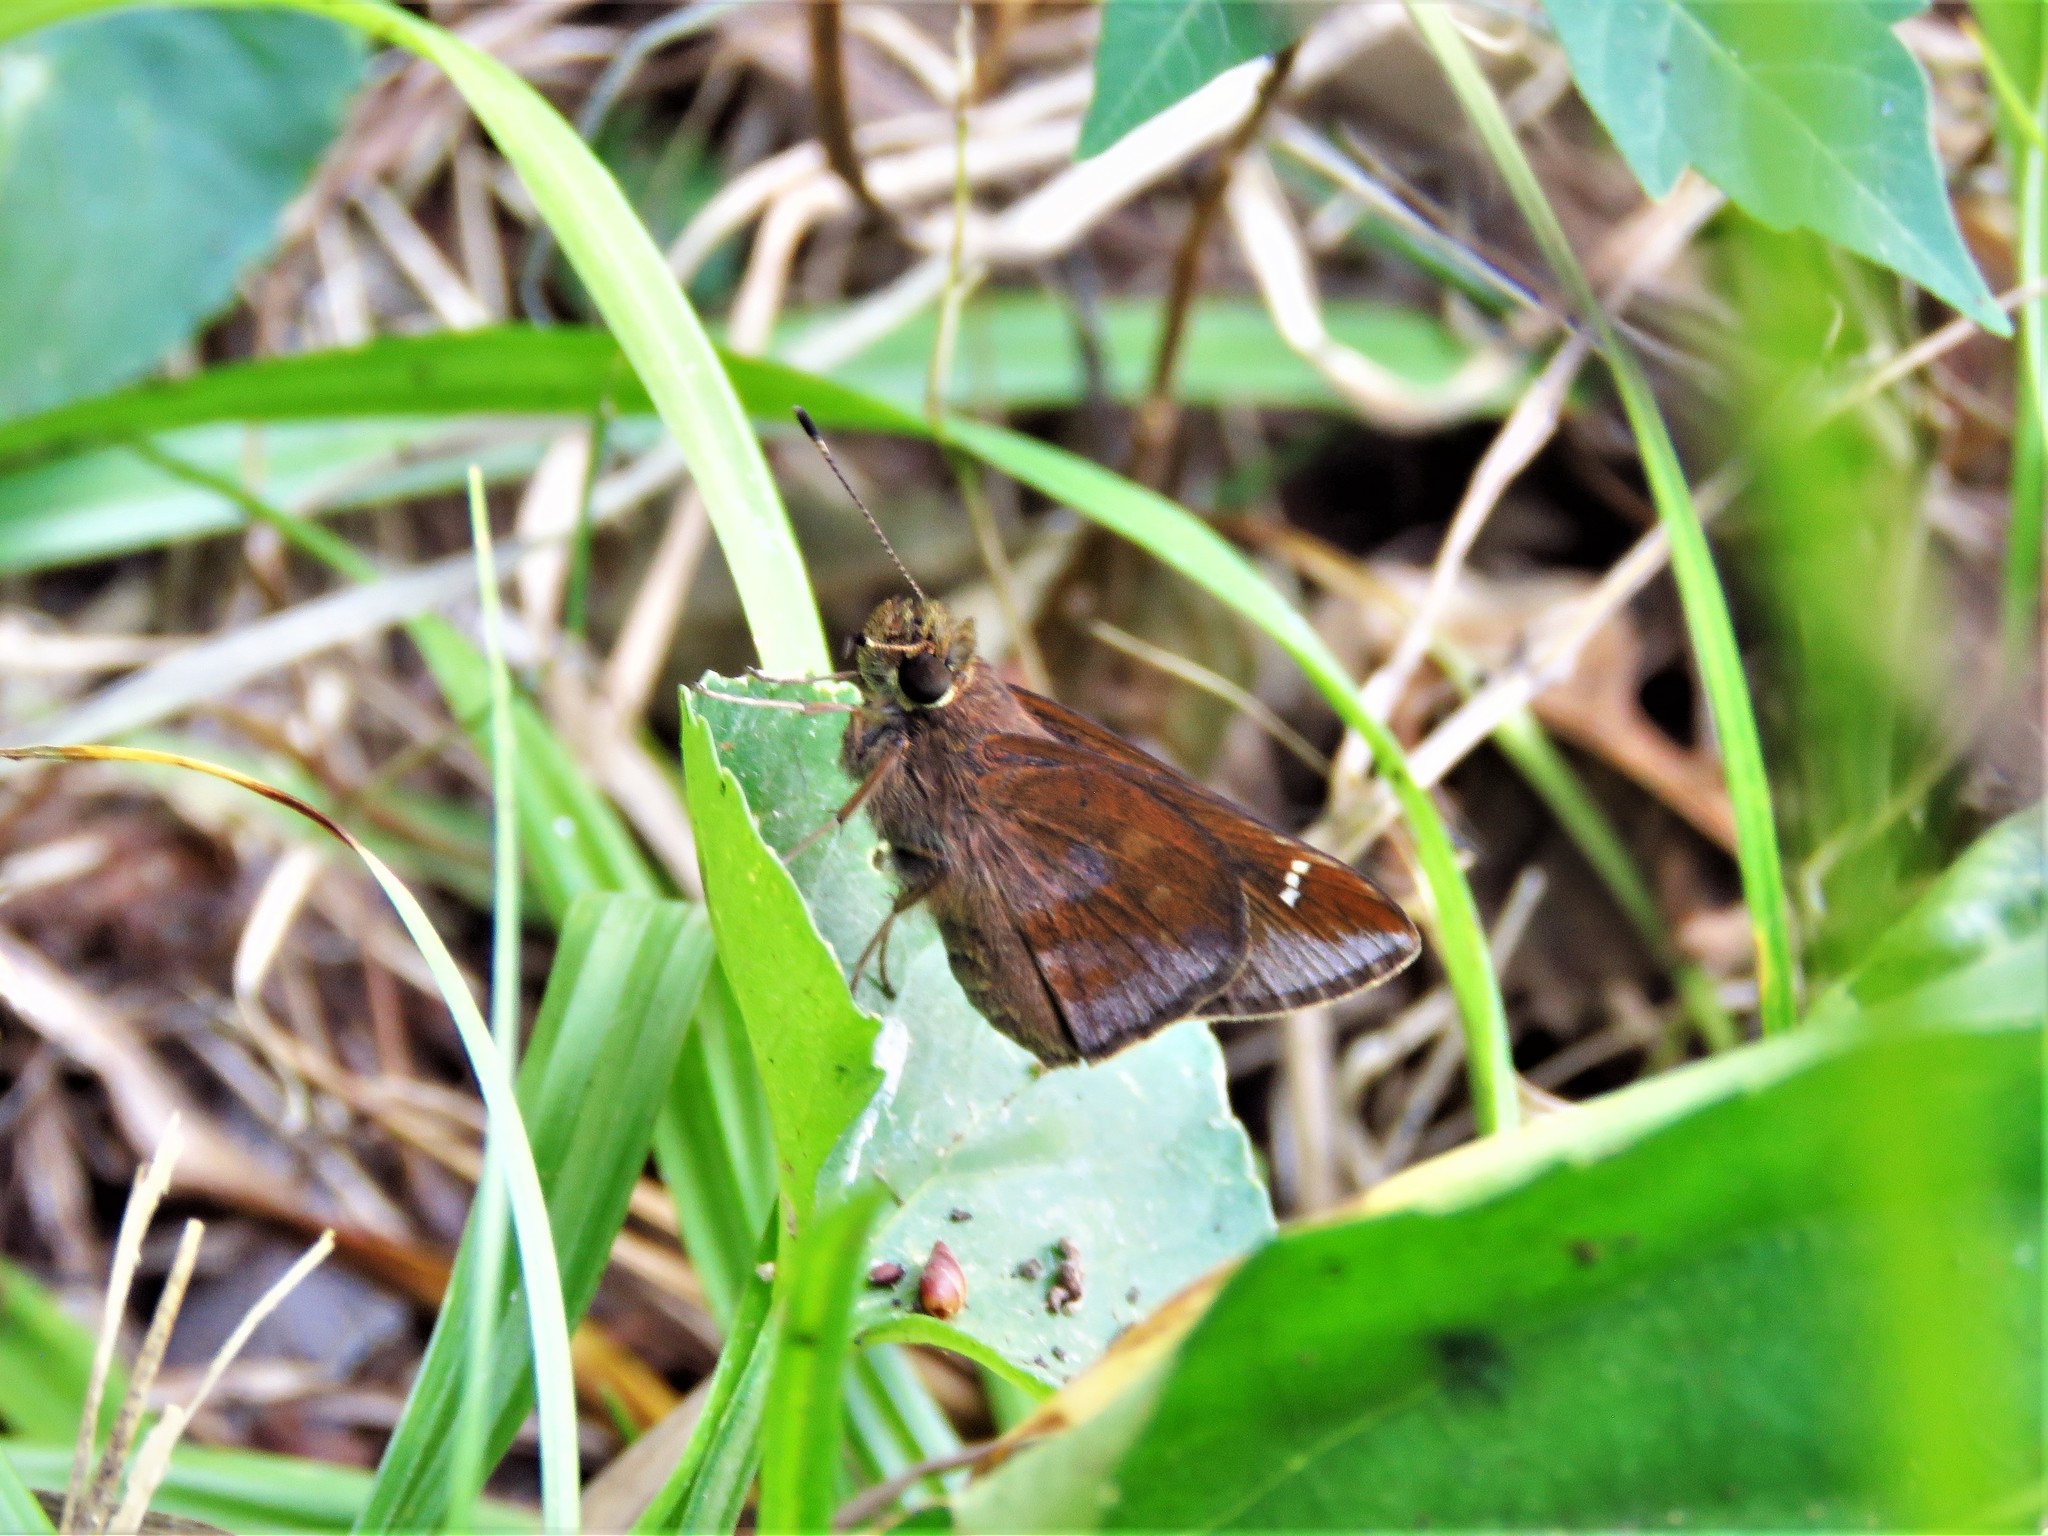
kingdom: Animalia
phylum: Arthropoda
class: Insecta
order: Lepidoptera
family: Hesperiidae
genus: Lerema
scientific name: Lerema accius
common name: Clouded skipper
